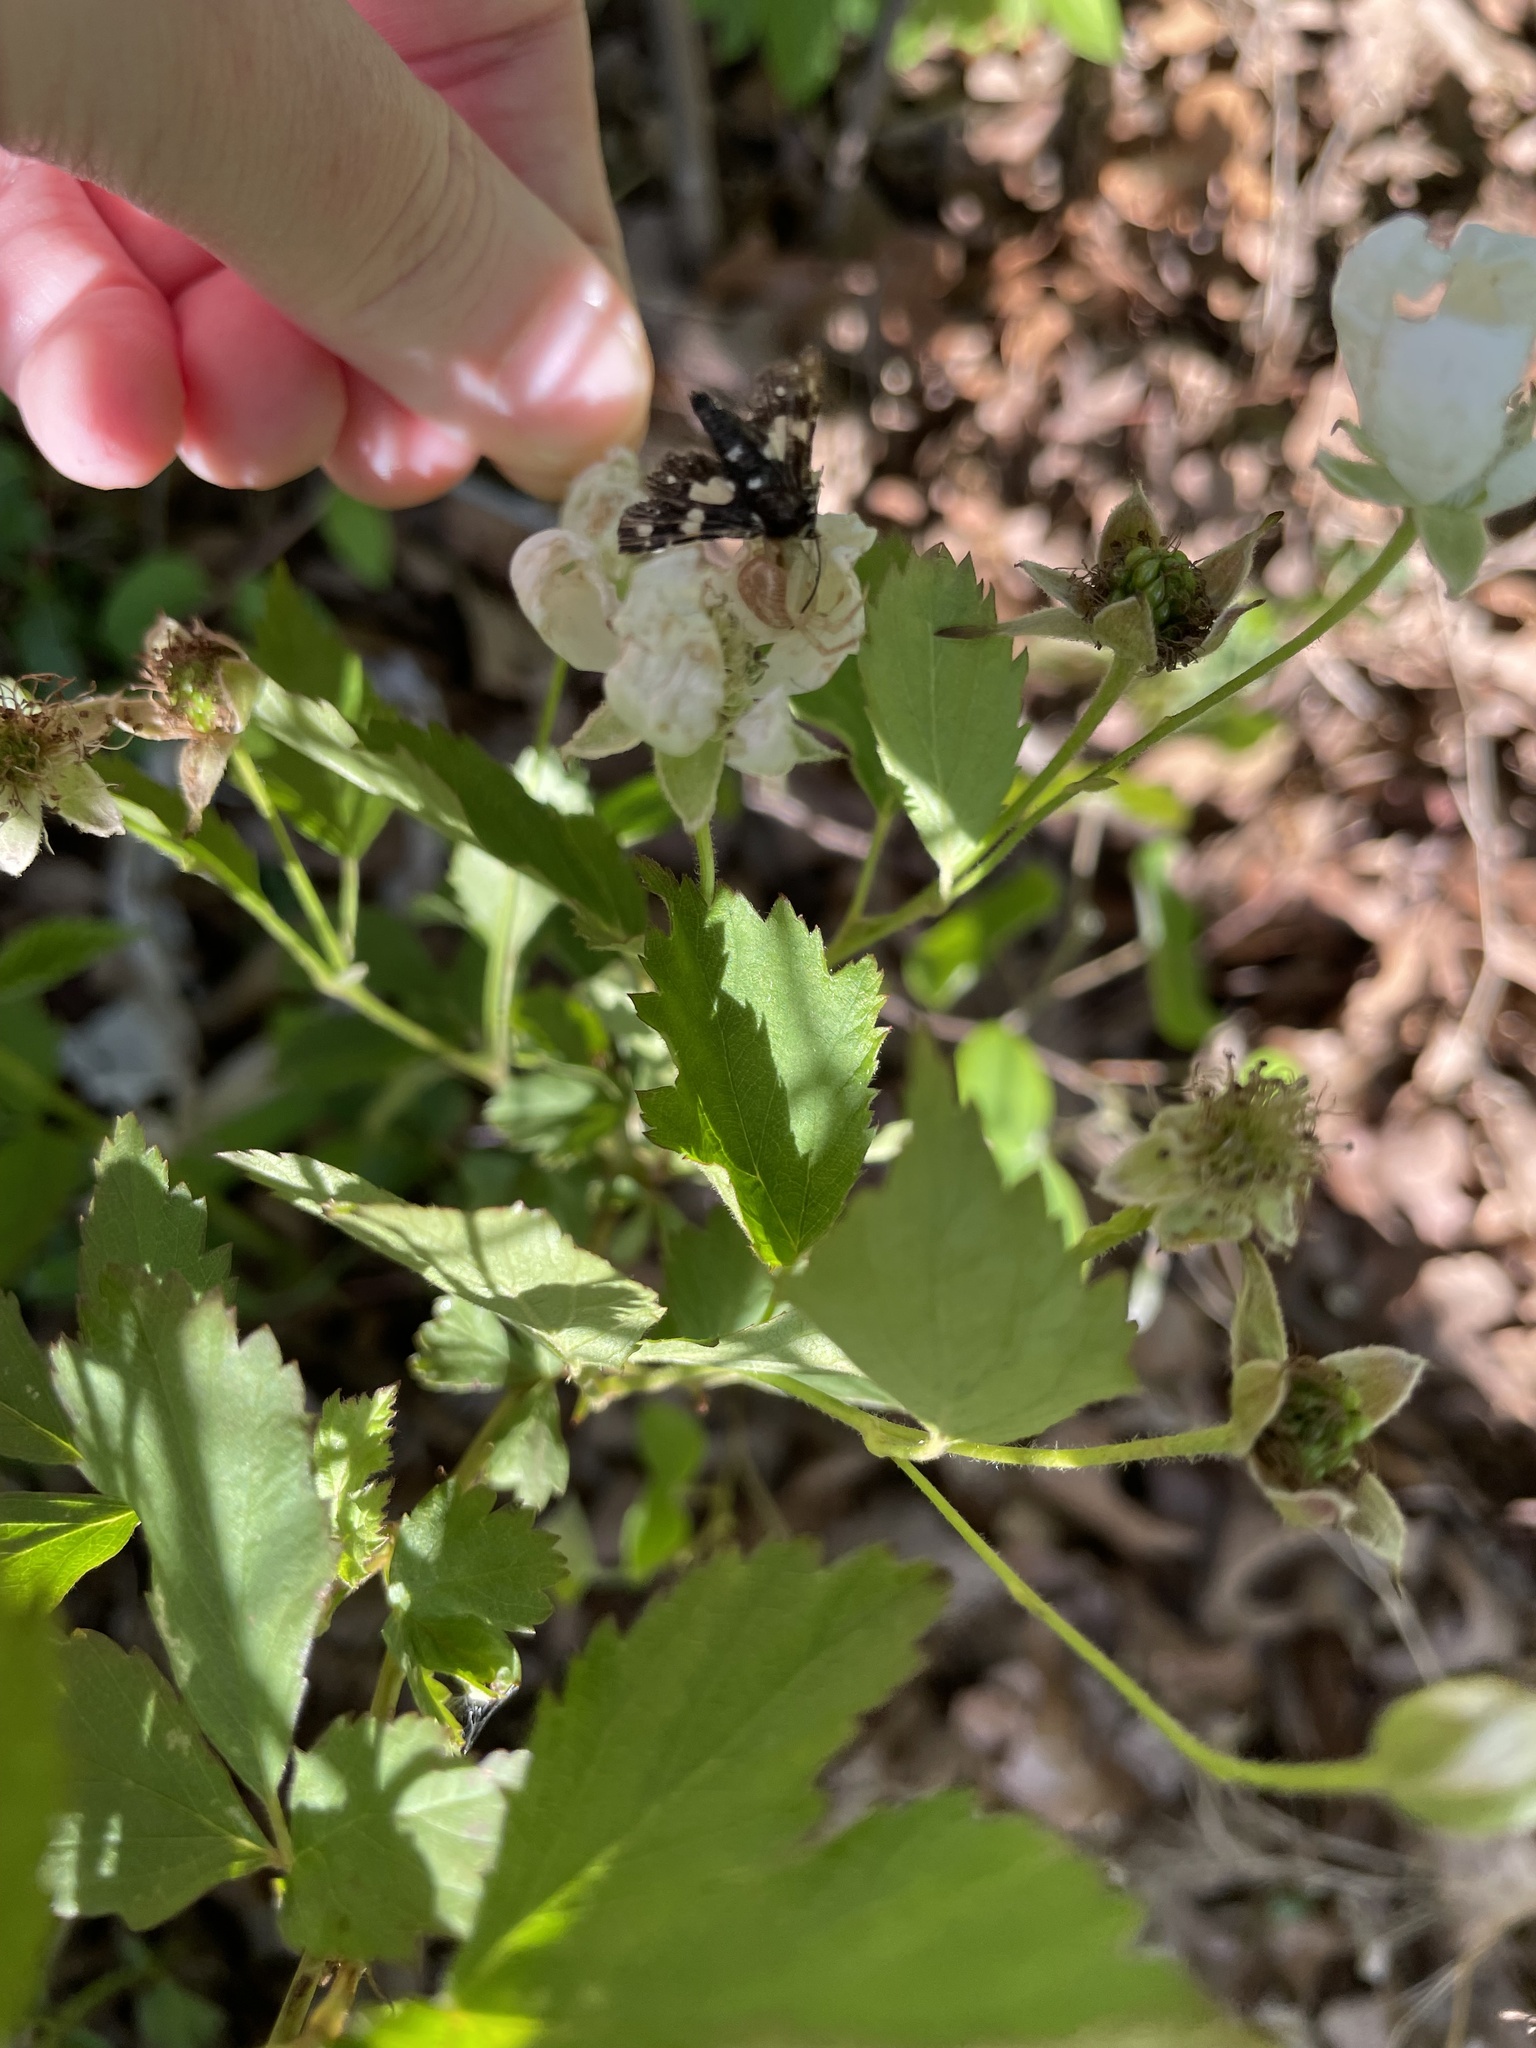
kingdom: Animalia
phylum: Arthropoda
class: Insecta
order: Lepidoptera
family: Thyrididae
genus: Pseudothyris
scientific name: Pseudothyris sepulchralis
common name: Mournful thyris moth
